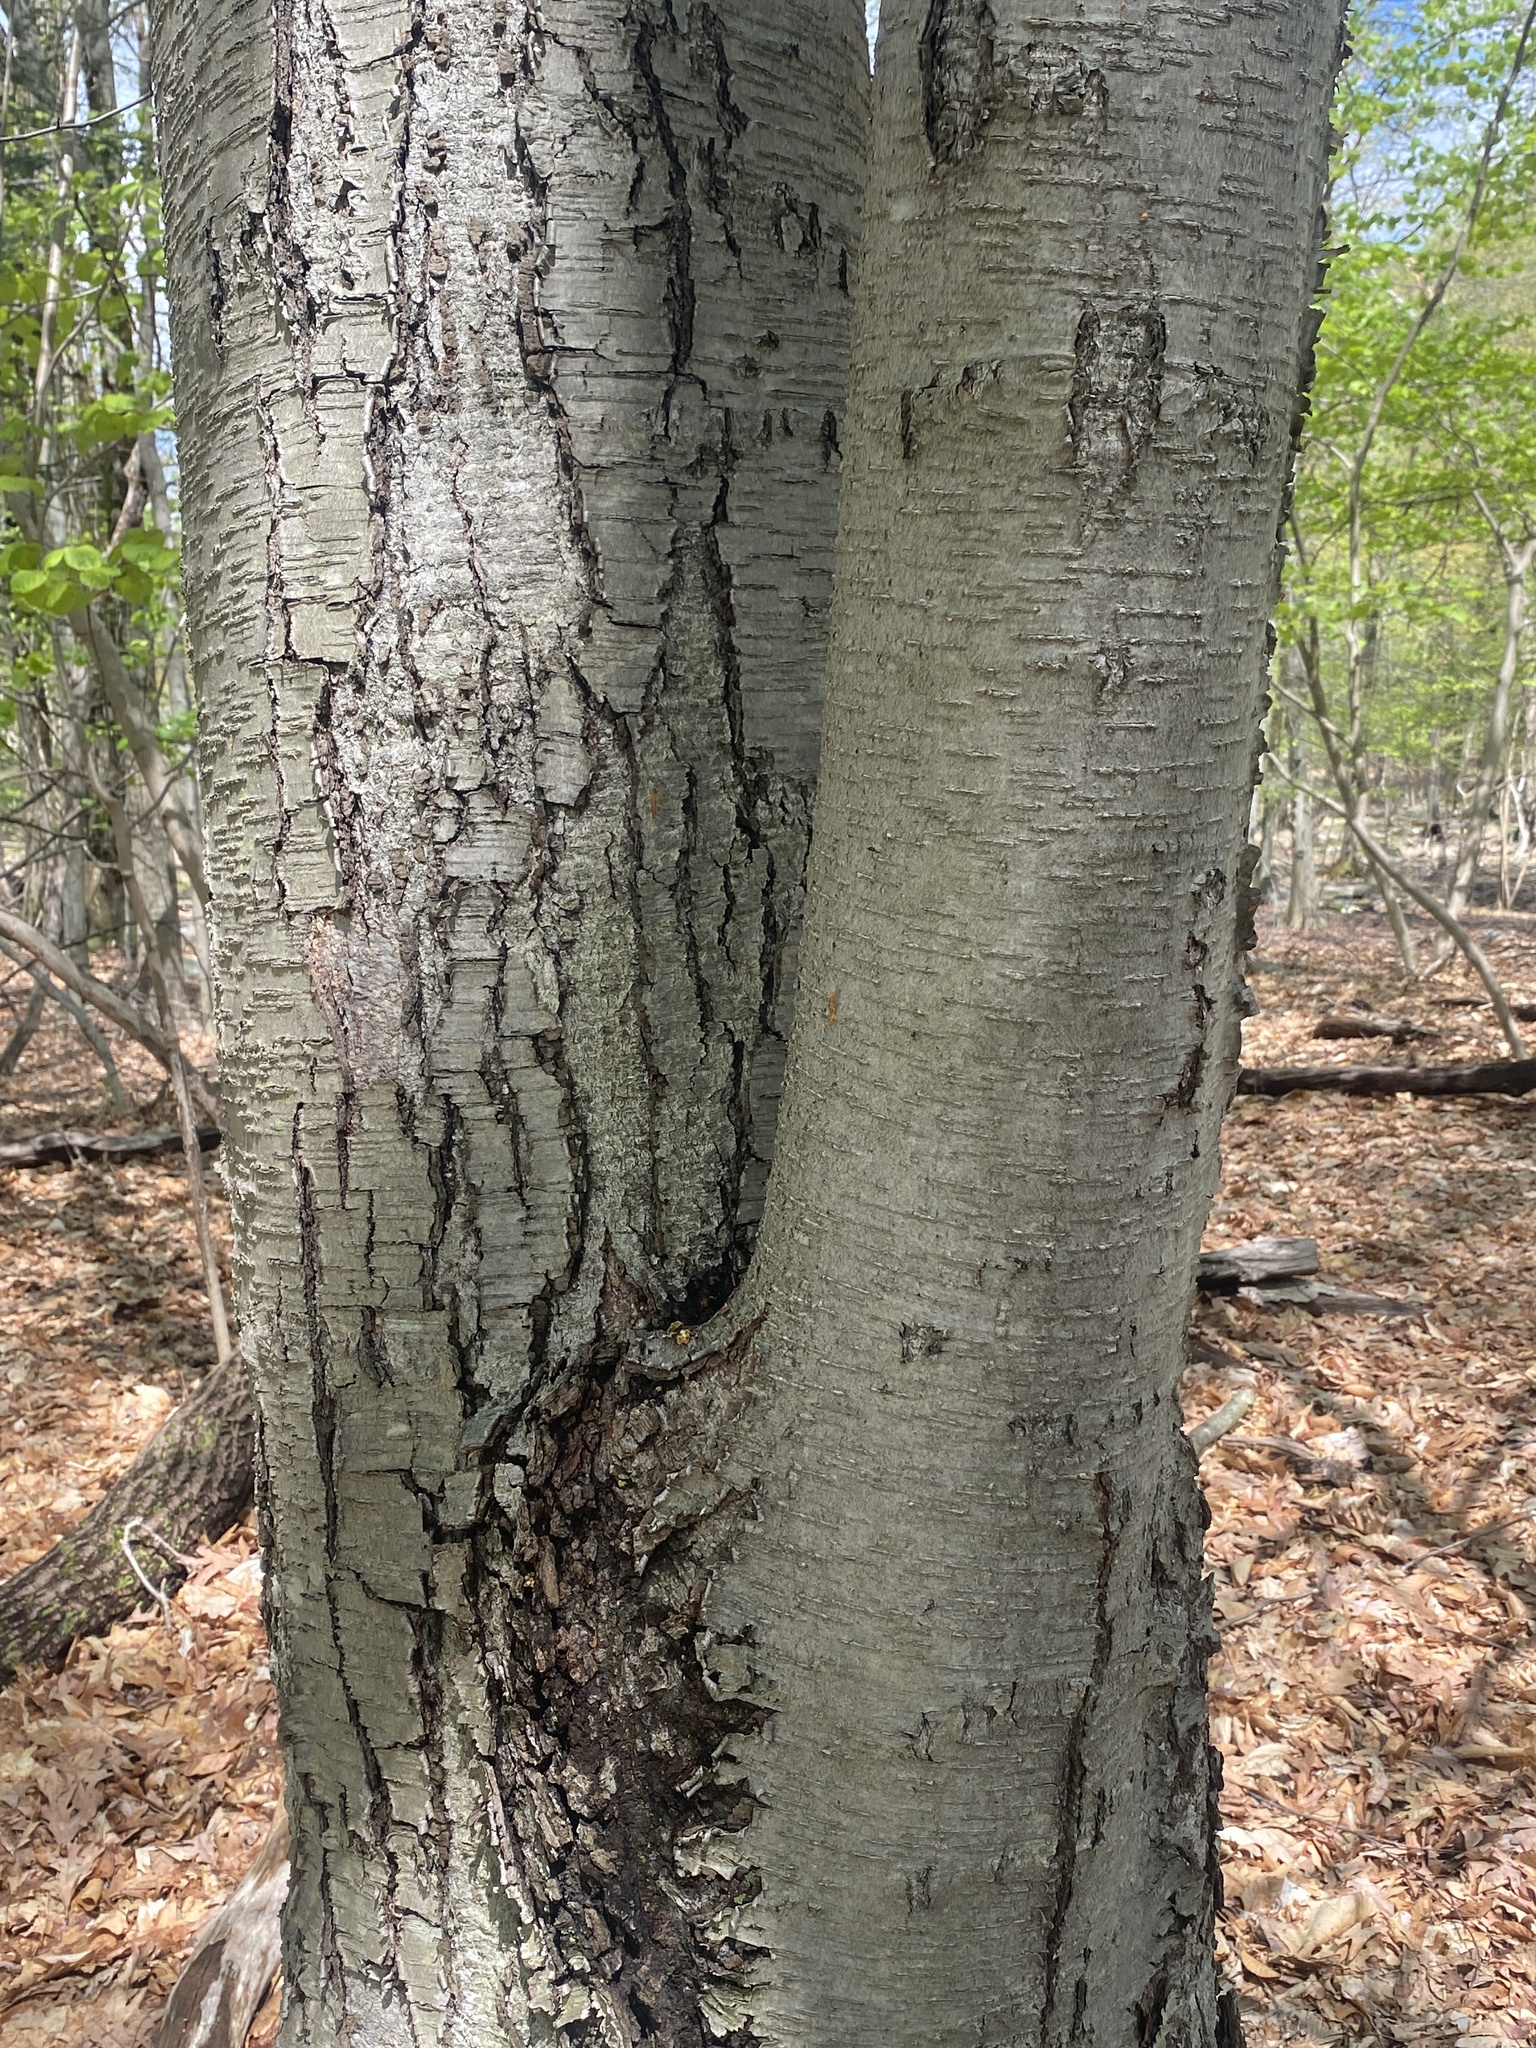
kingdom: Plantae
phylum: Tracheophyta
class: Magnoliopsida
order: Fagales
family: Betulaceae
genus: Betula
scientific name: Betula lenta
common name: Black birch
